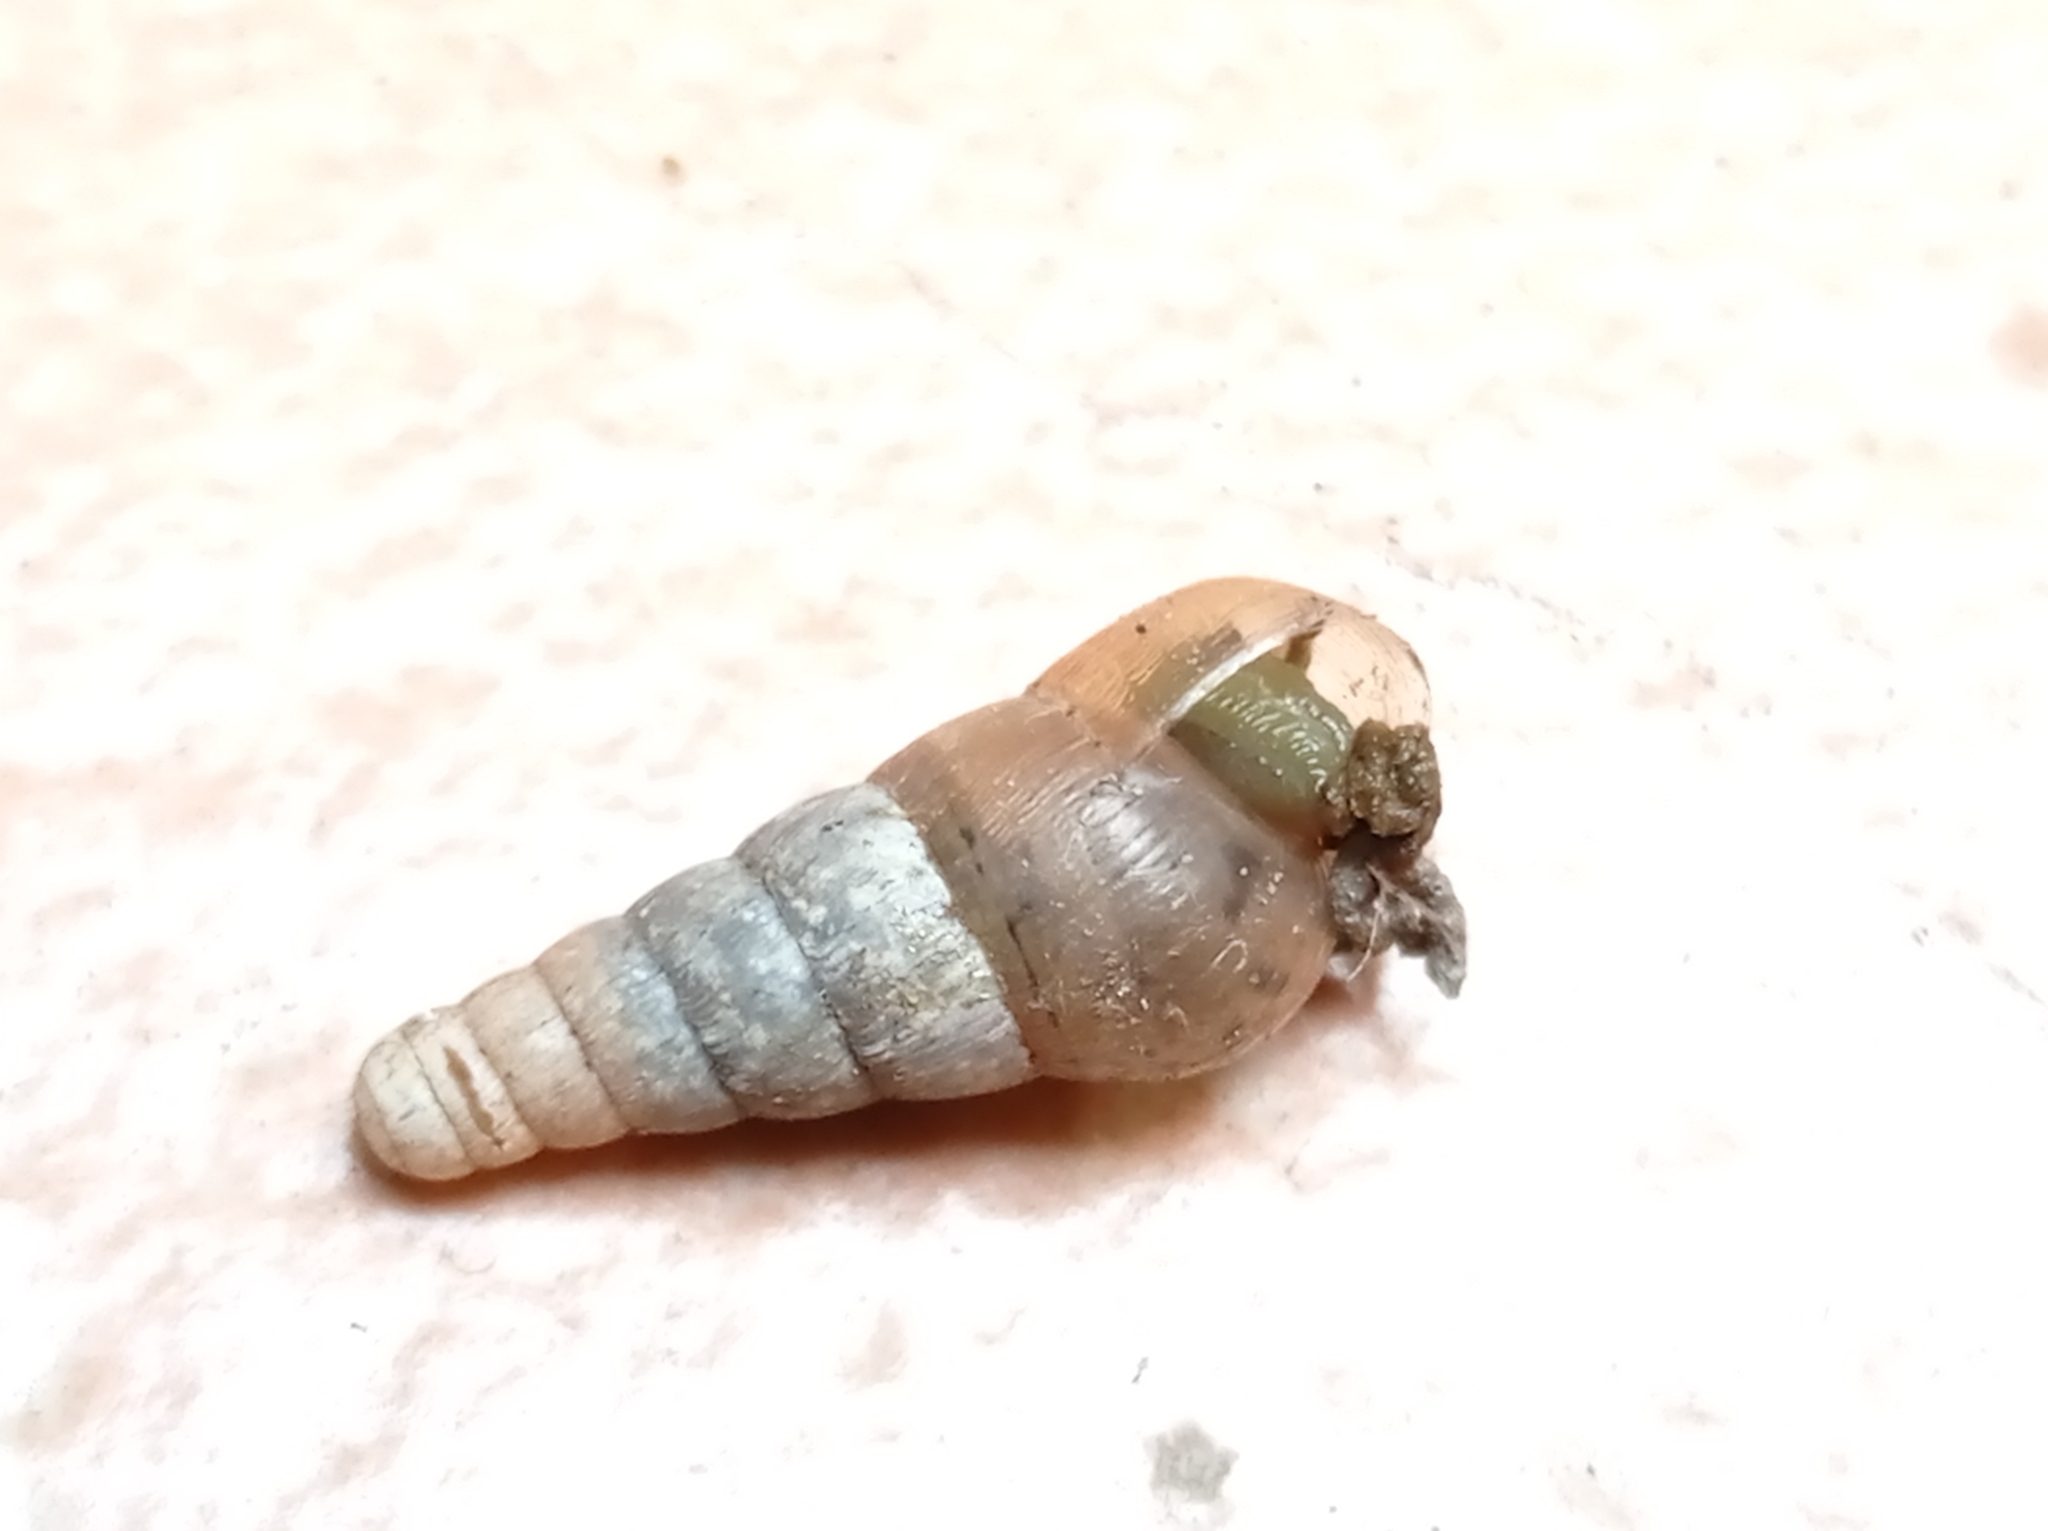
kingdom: Animalia
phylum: Mollusca
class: Gastropoda
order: Stylommatophora
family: Achatinidae
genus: Rumina
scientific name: Rumina decollata
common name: Decollate snail
